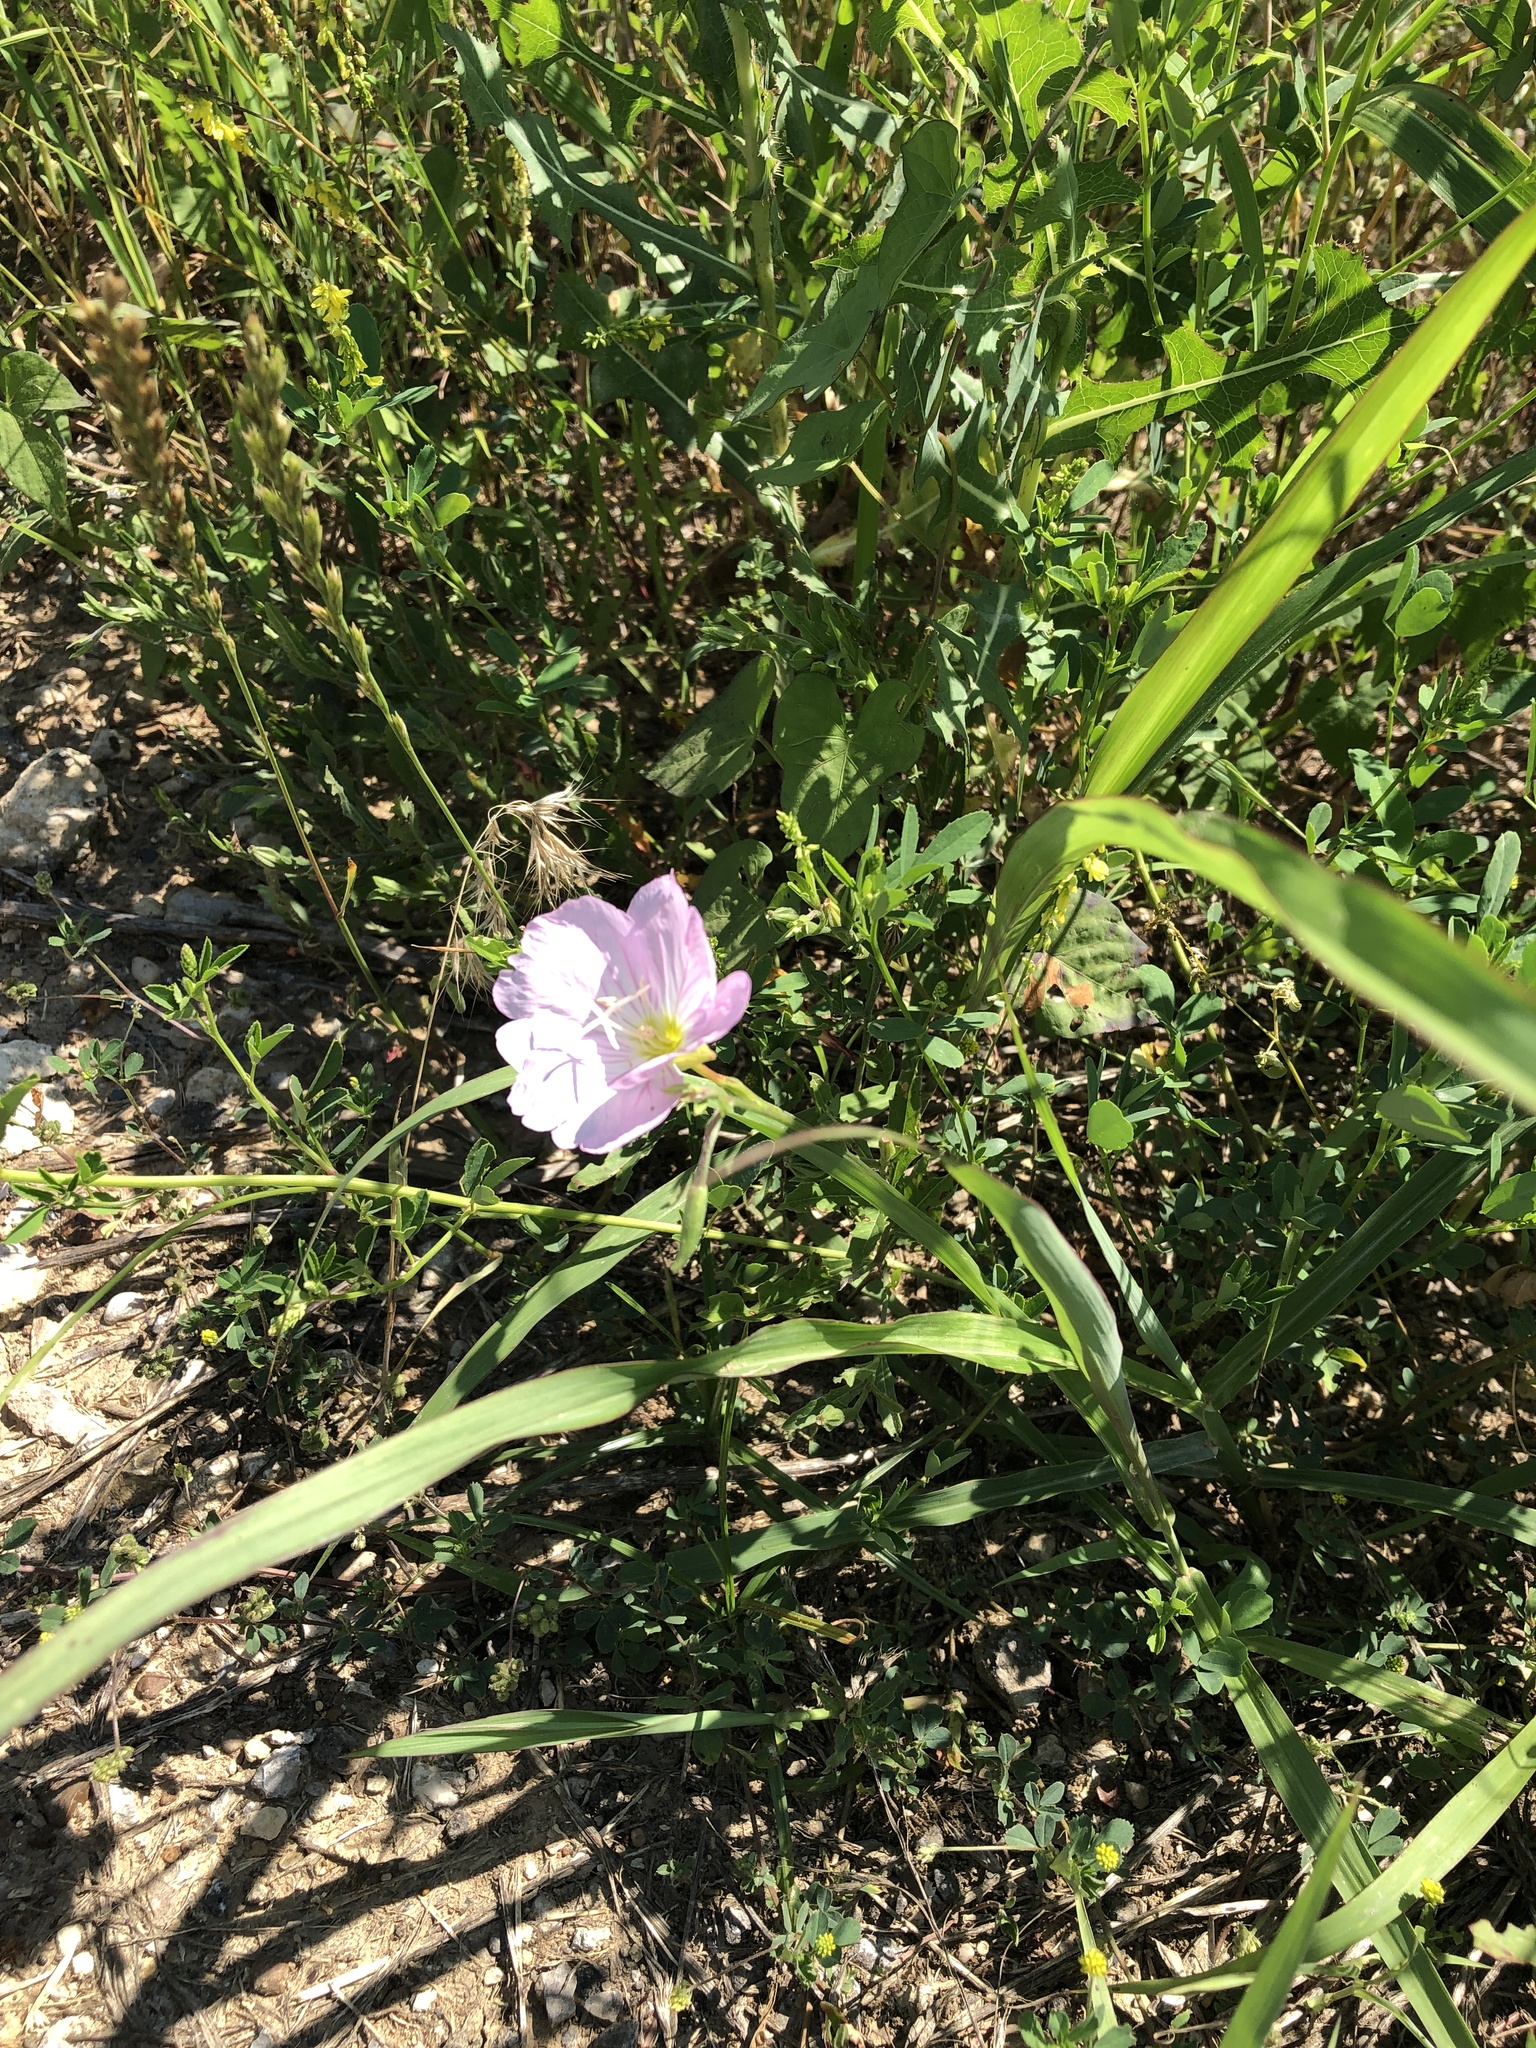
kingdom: Plantae
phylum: Tracheophyta
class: Magnoliopsida
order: Myrtales
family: Onagraceae
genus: Oenothera
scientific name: Oenothera speciosa
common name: White evening-primrose
